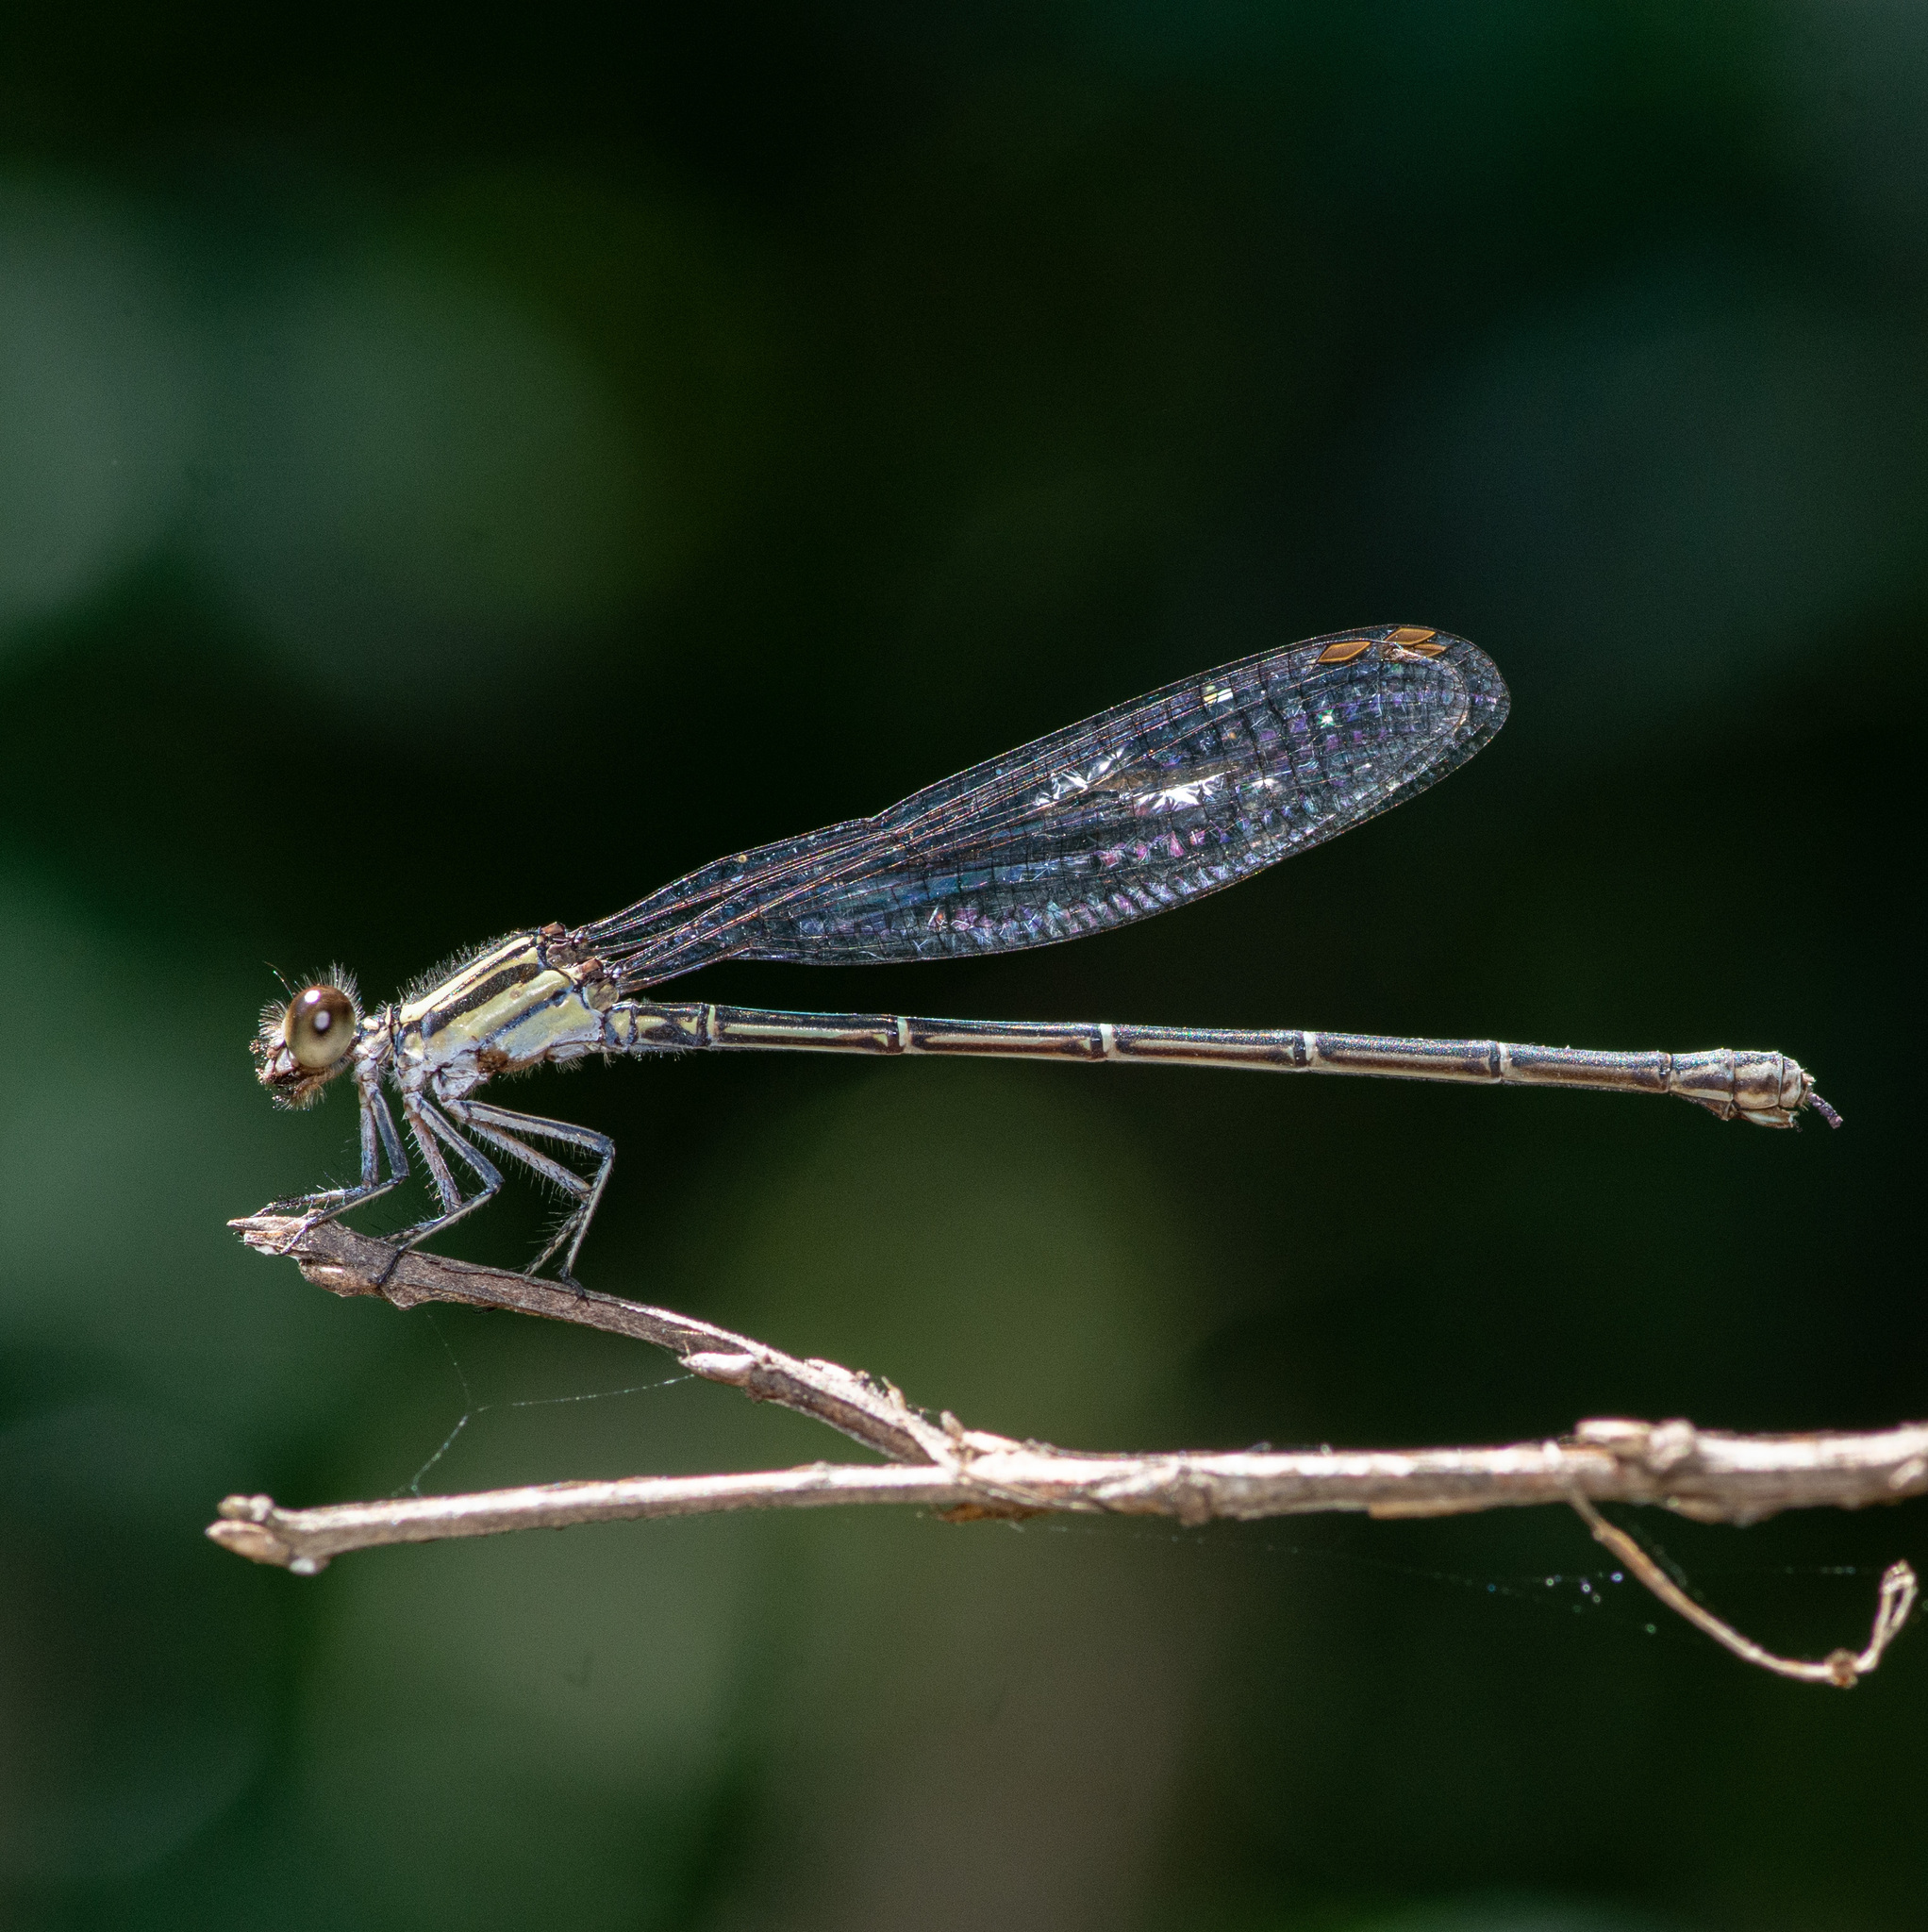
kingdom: Animalia
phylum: Arthropoda
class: Insecta
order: Odonata
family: Coenagrionidae
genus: Argia
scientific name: Argia translata
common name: Dusky dancer
